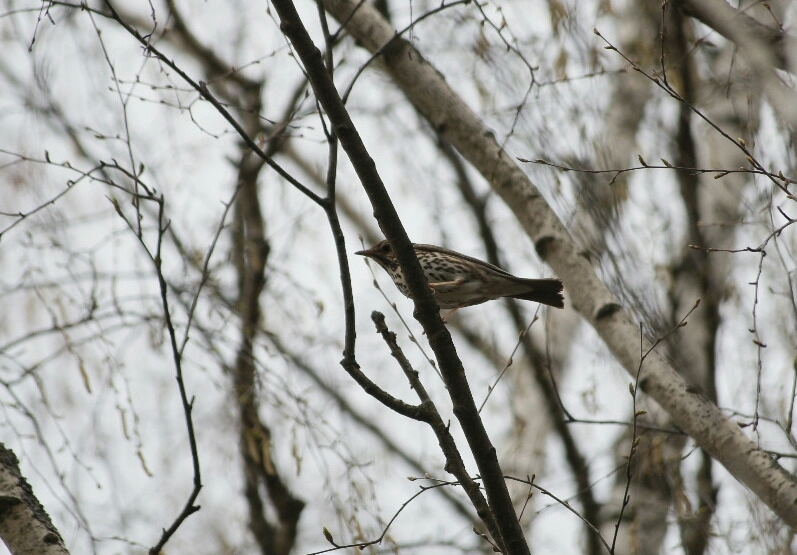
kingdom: Animalia
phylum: Chordata
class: Aves
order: Passeriformes
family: Turdidae
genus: Turdus
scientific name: Turdus philomelos
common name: Song thrush
